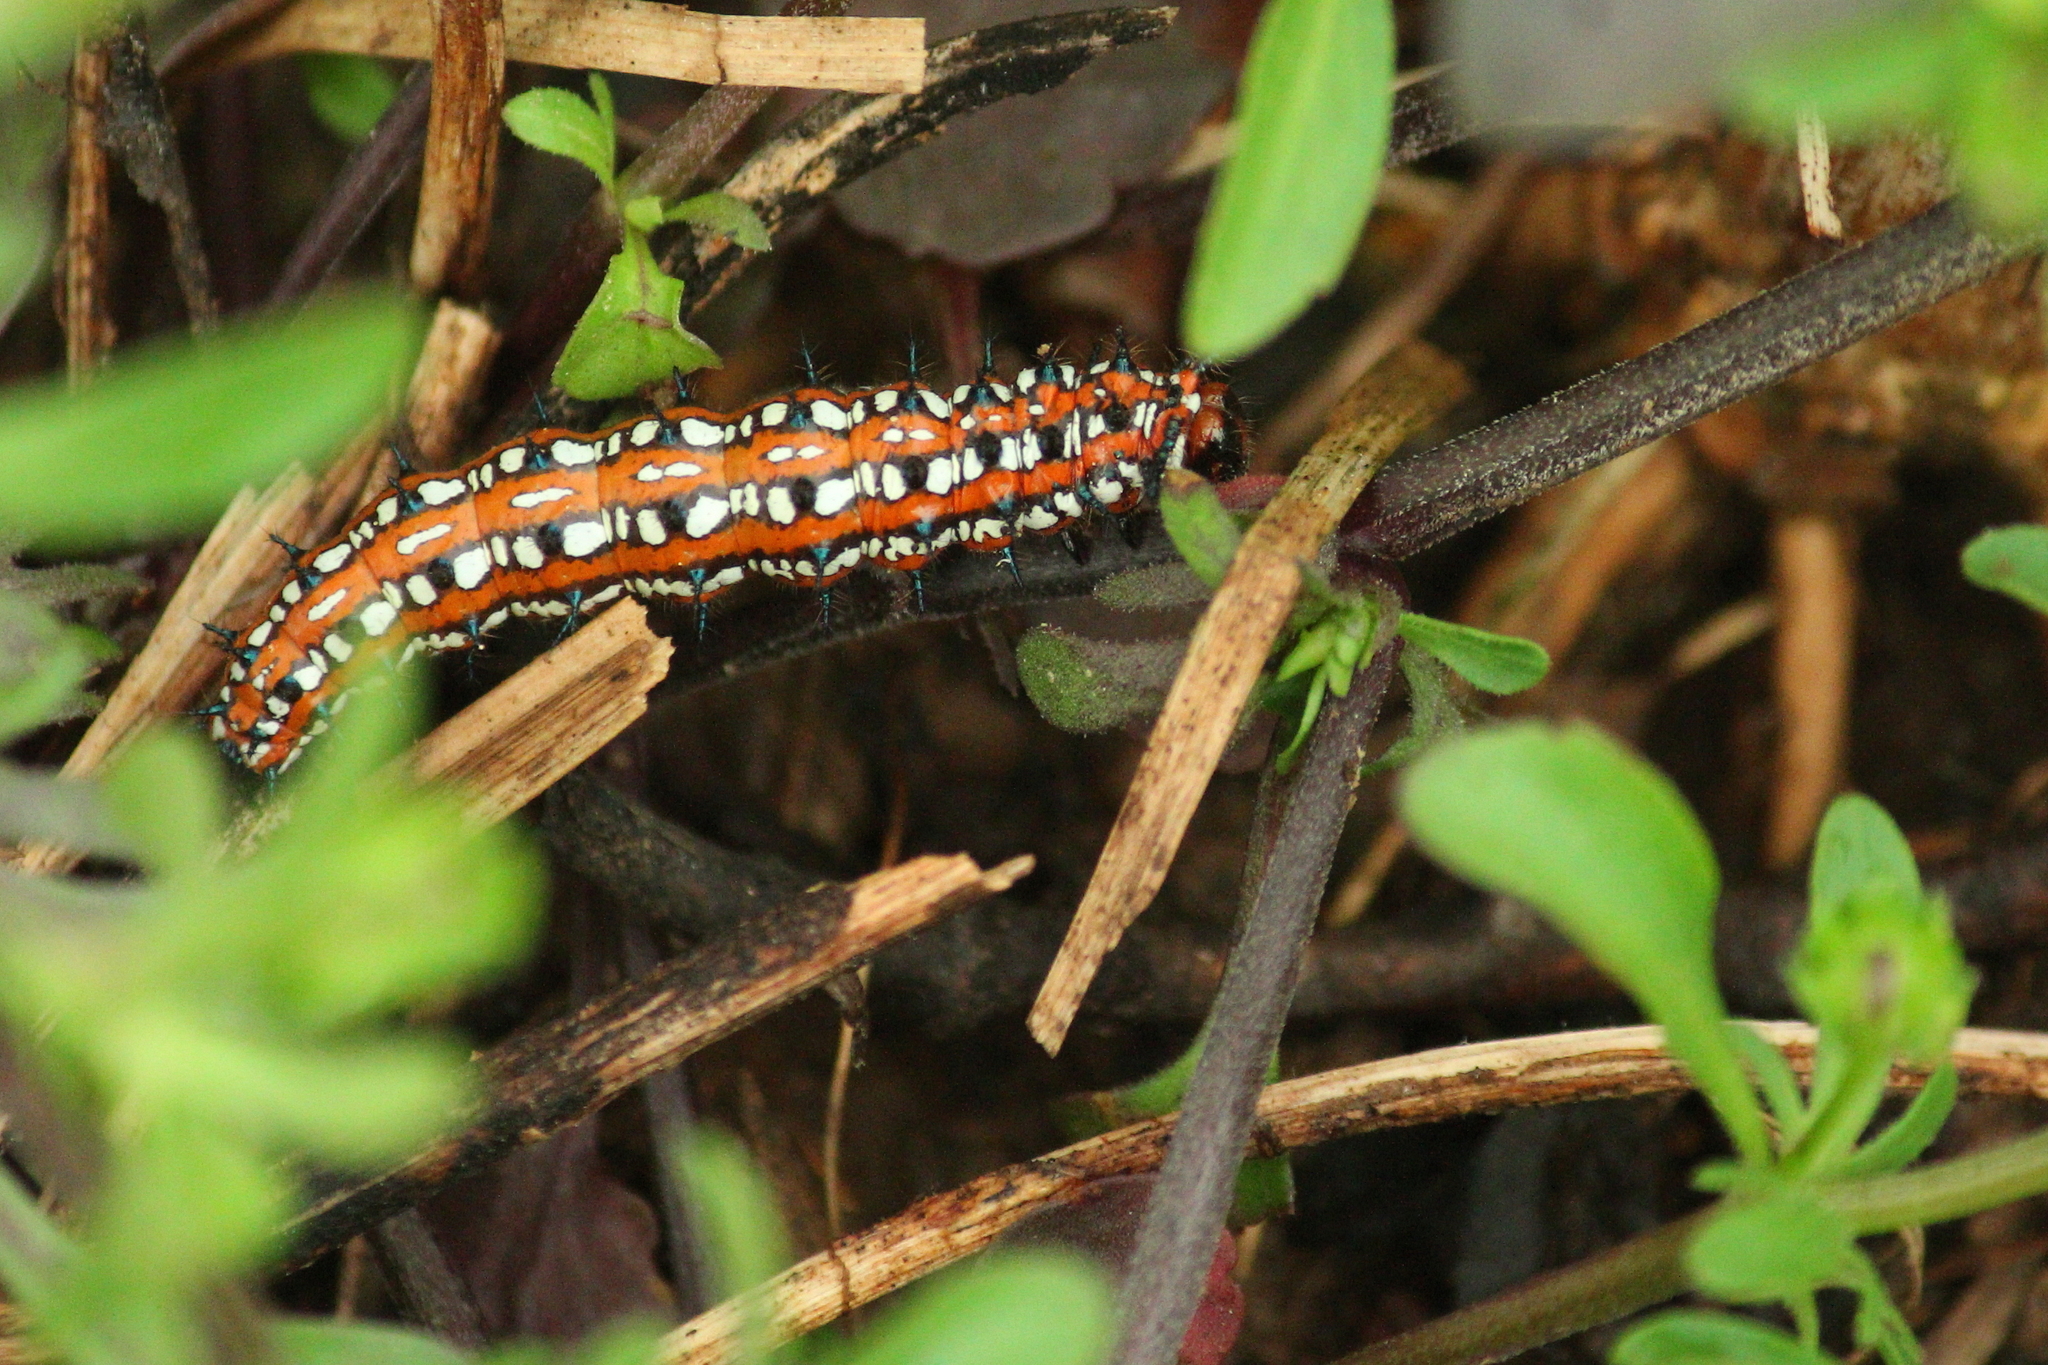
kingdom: Animalia
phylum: Arthropoda
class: Insecta
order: Lepidoptera
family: Nymphalidae
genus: Euptoieta
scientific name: Euptoieta claudia
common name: Variegated fritillary
